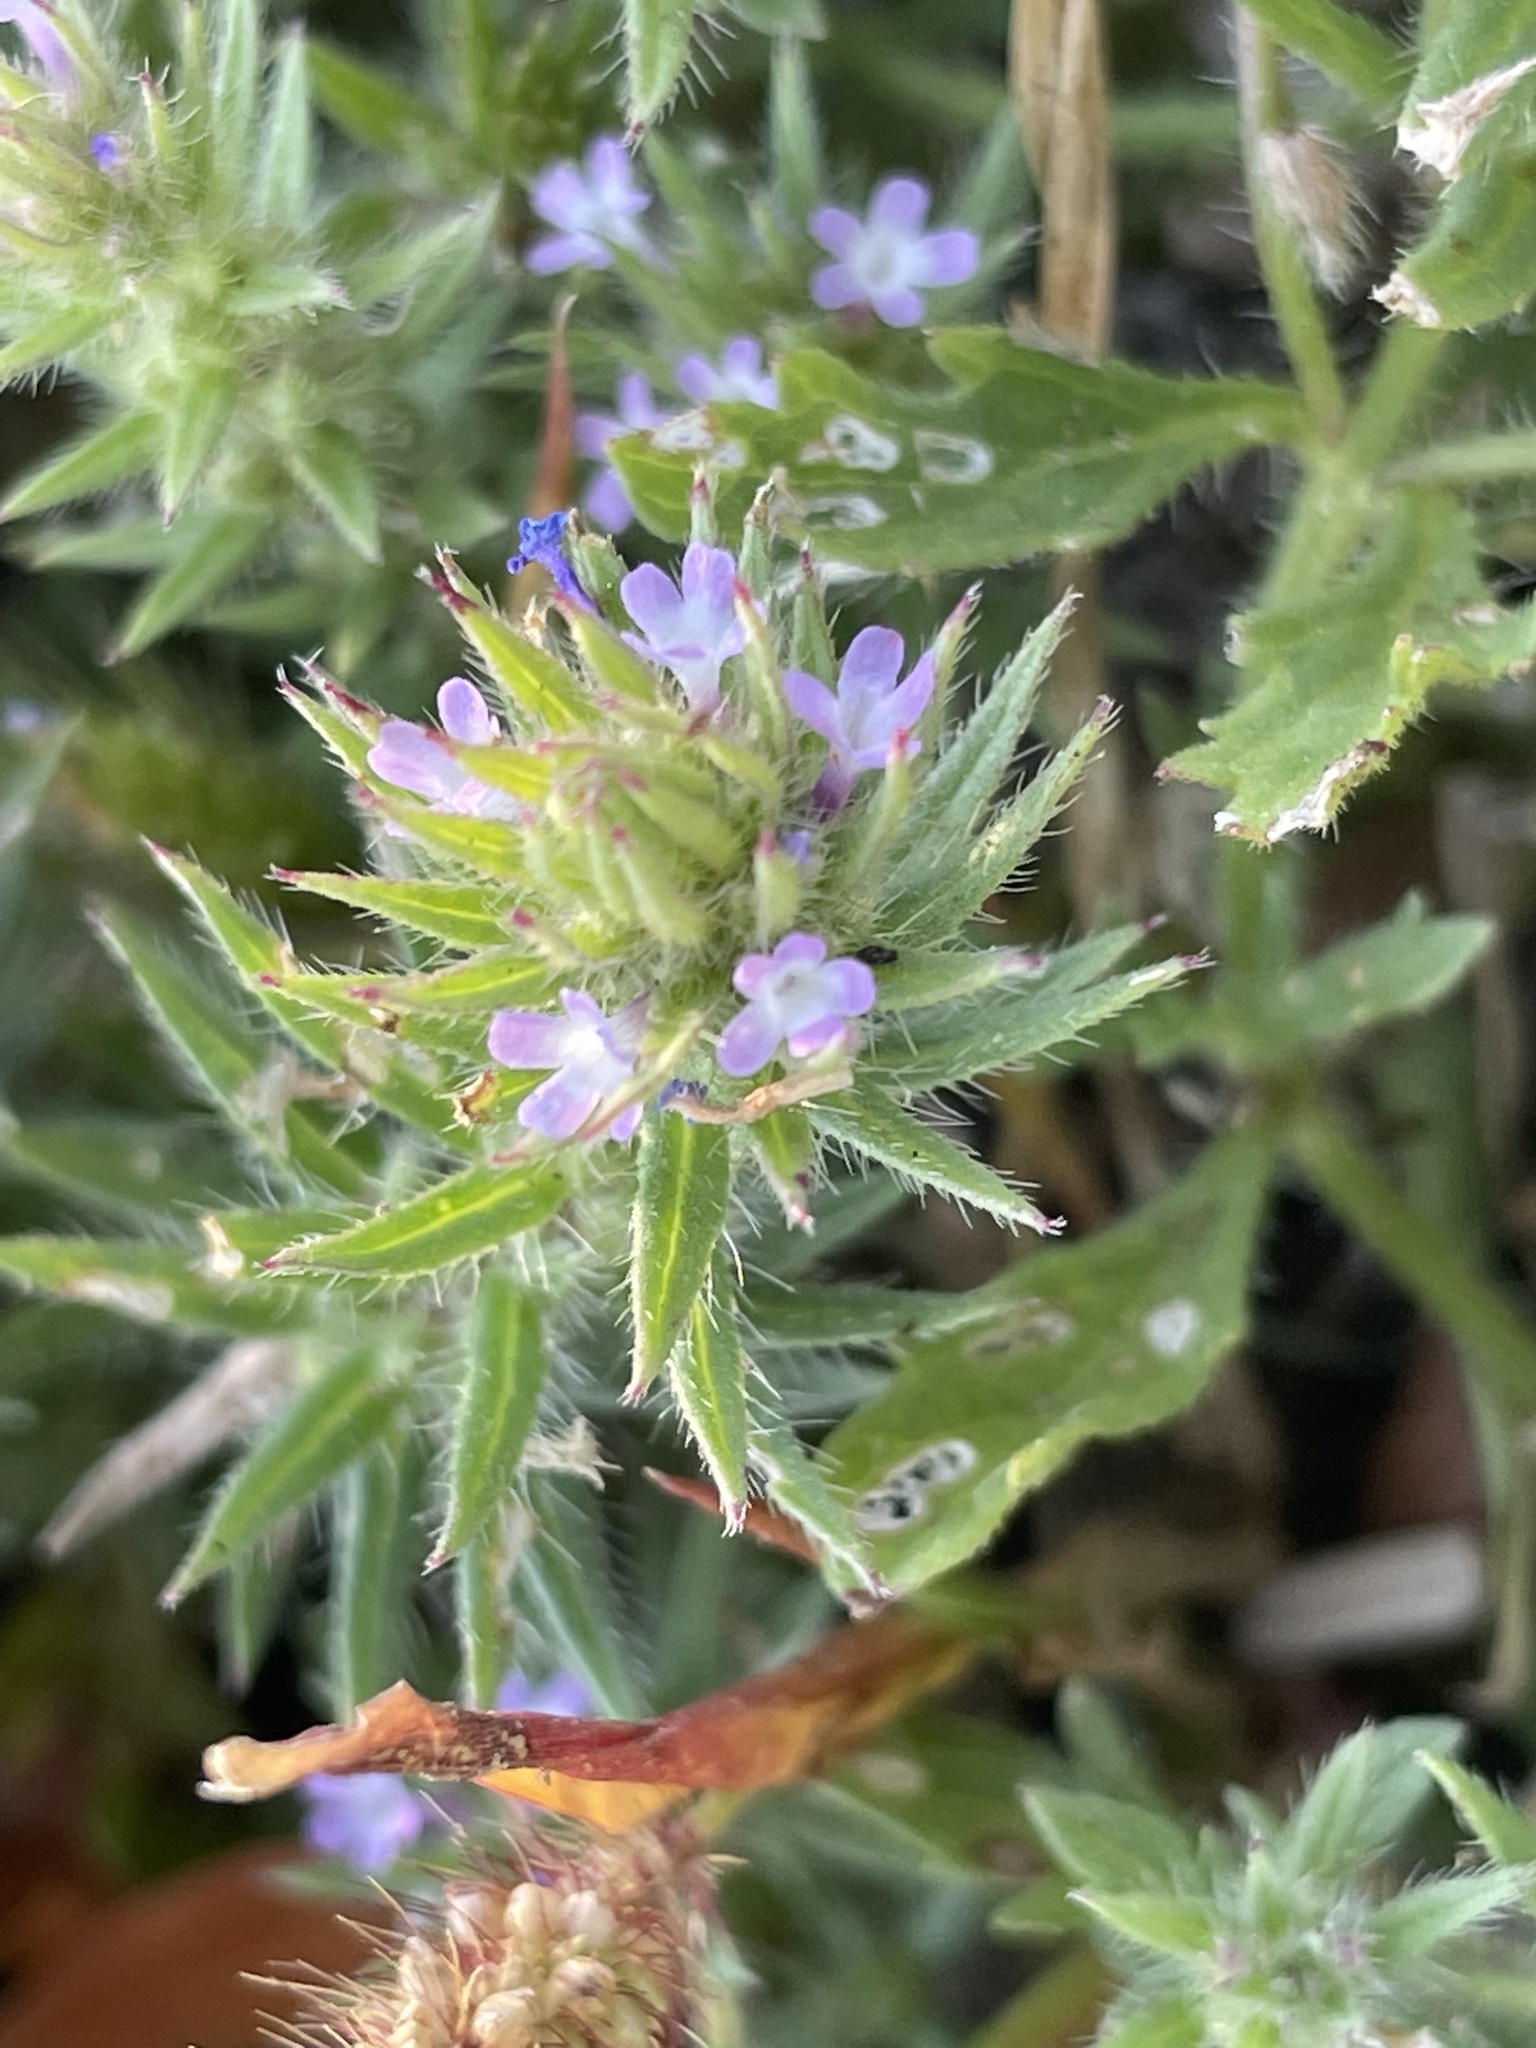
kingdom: Plantae
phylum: Tracheophyta
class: Magnoliopsida
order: Lamiales
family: Verbenaceae
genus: Verbena
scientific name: Verbena bracteata
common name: Bracted vervain
